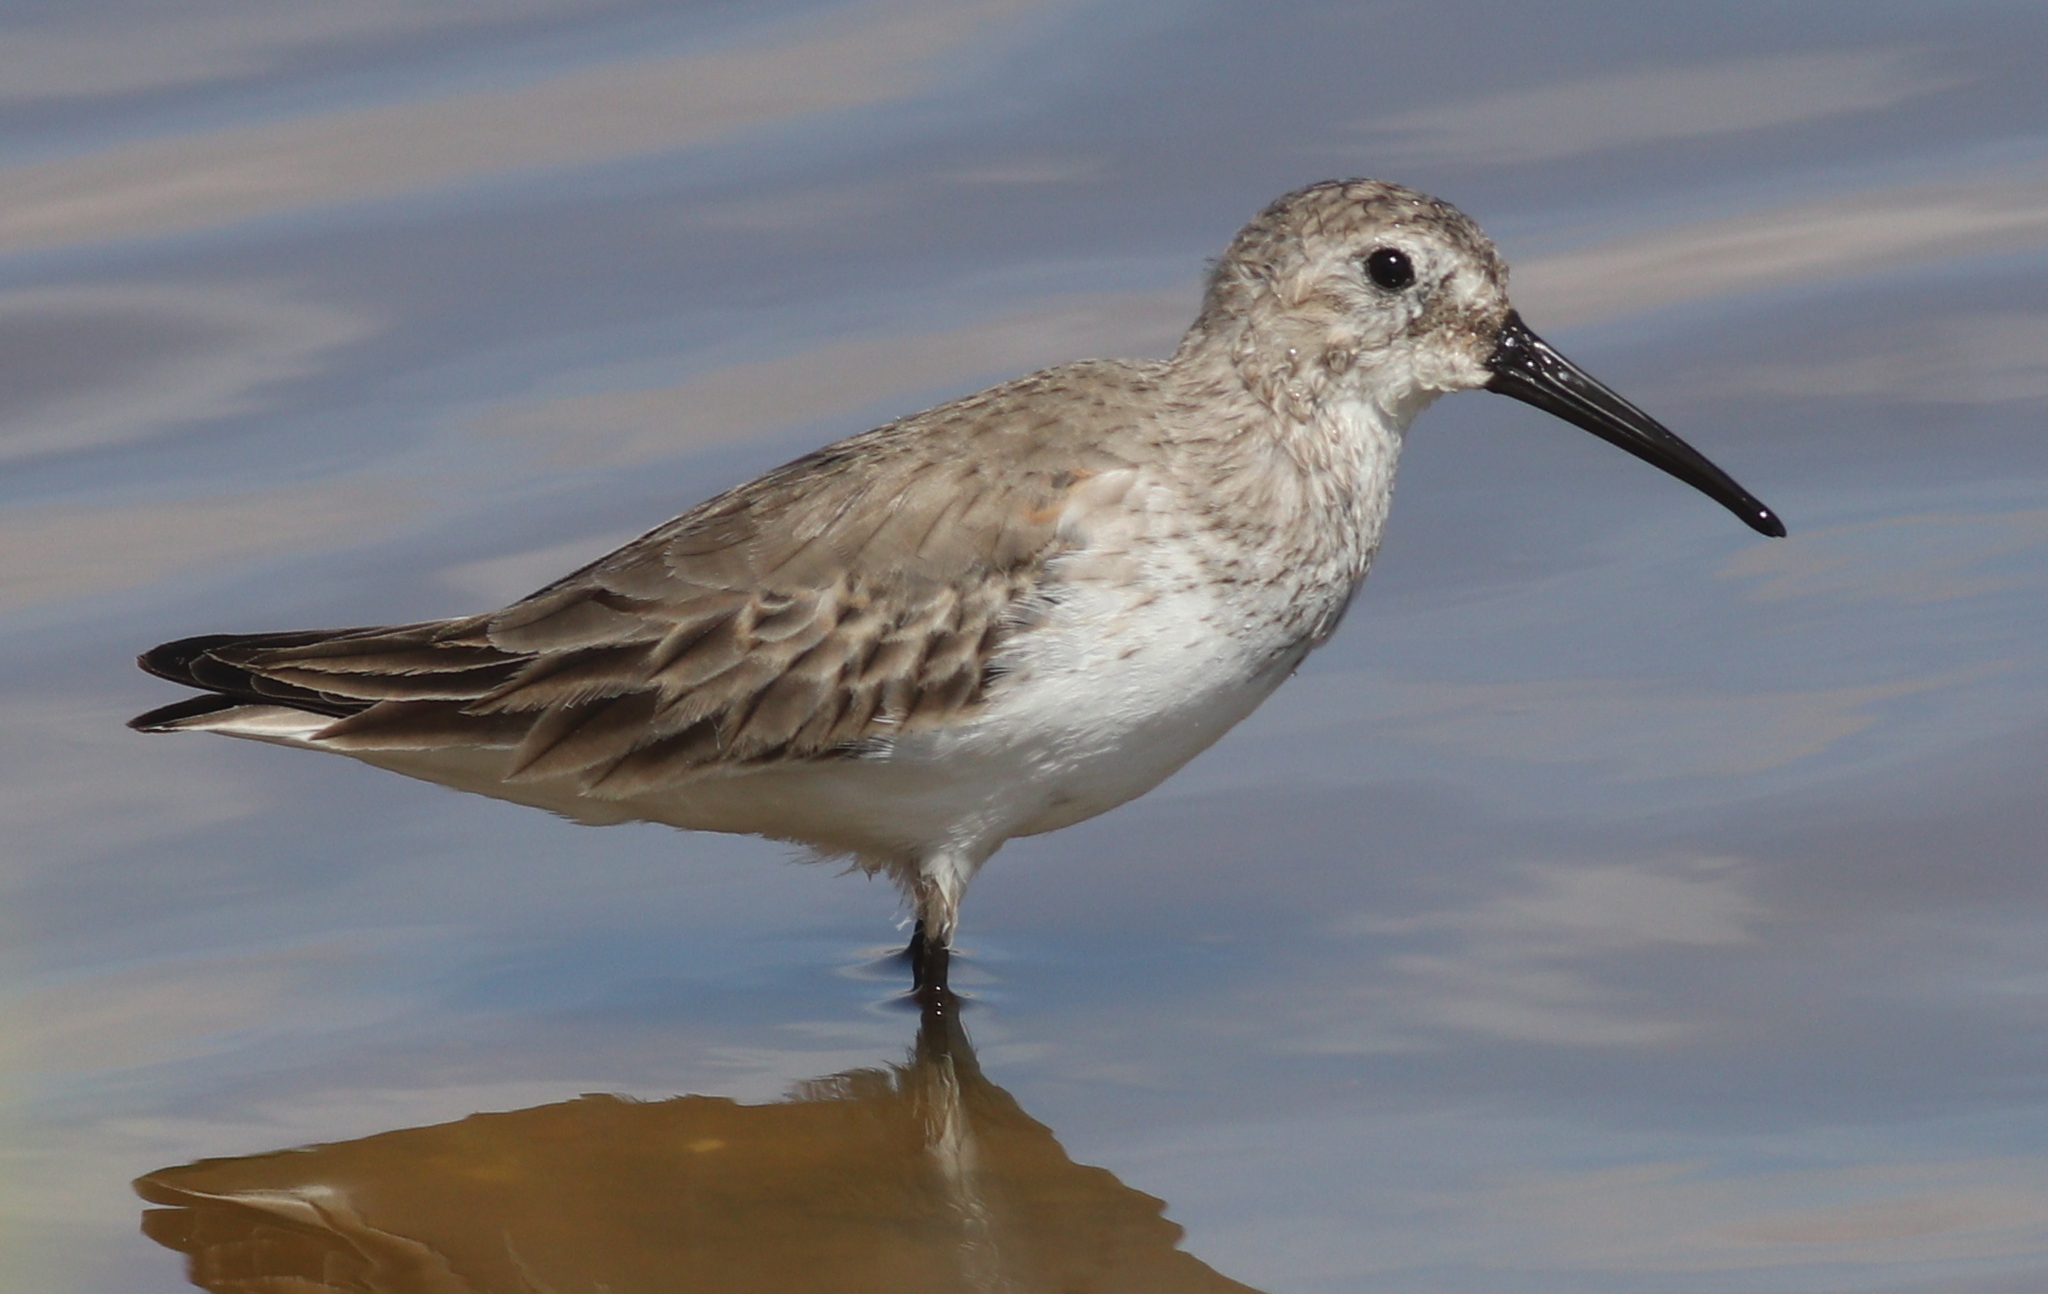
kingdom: Animalia
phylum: Chordata
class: Aves
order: Charadriiformes
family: Scolopacidae
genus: Calidris
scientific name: Calidris alpina
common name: Dunlin
